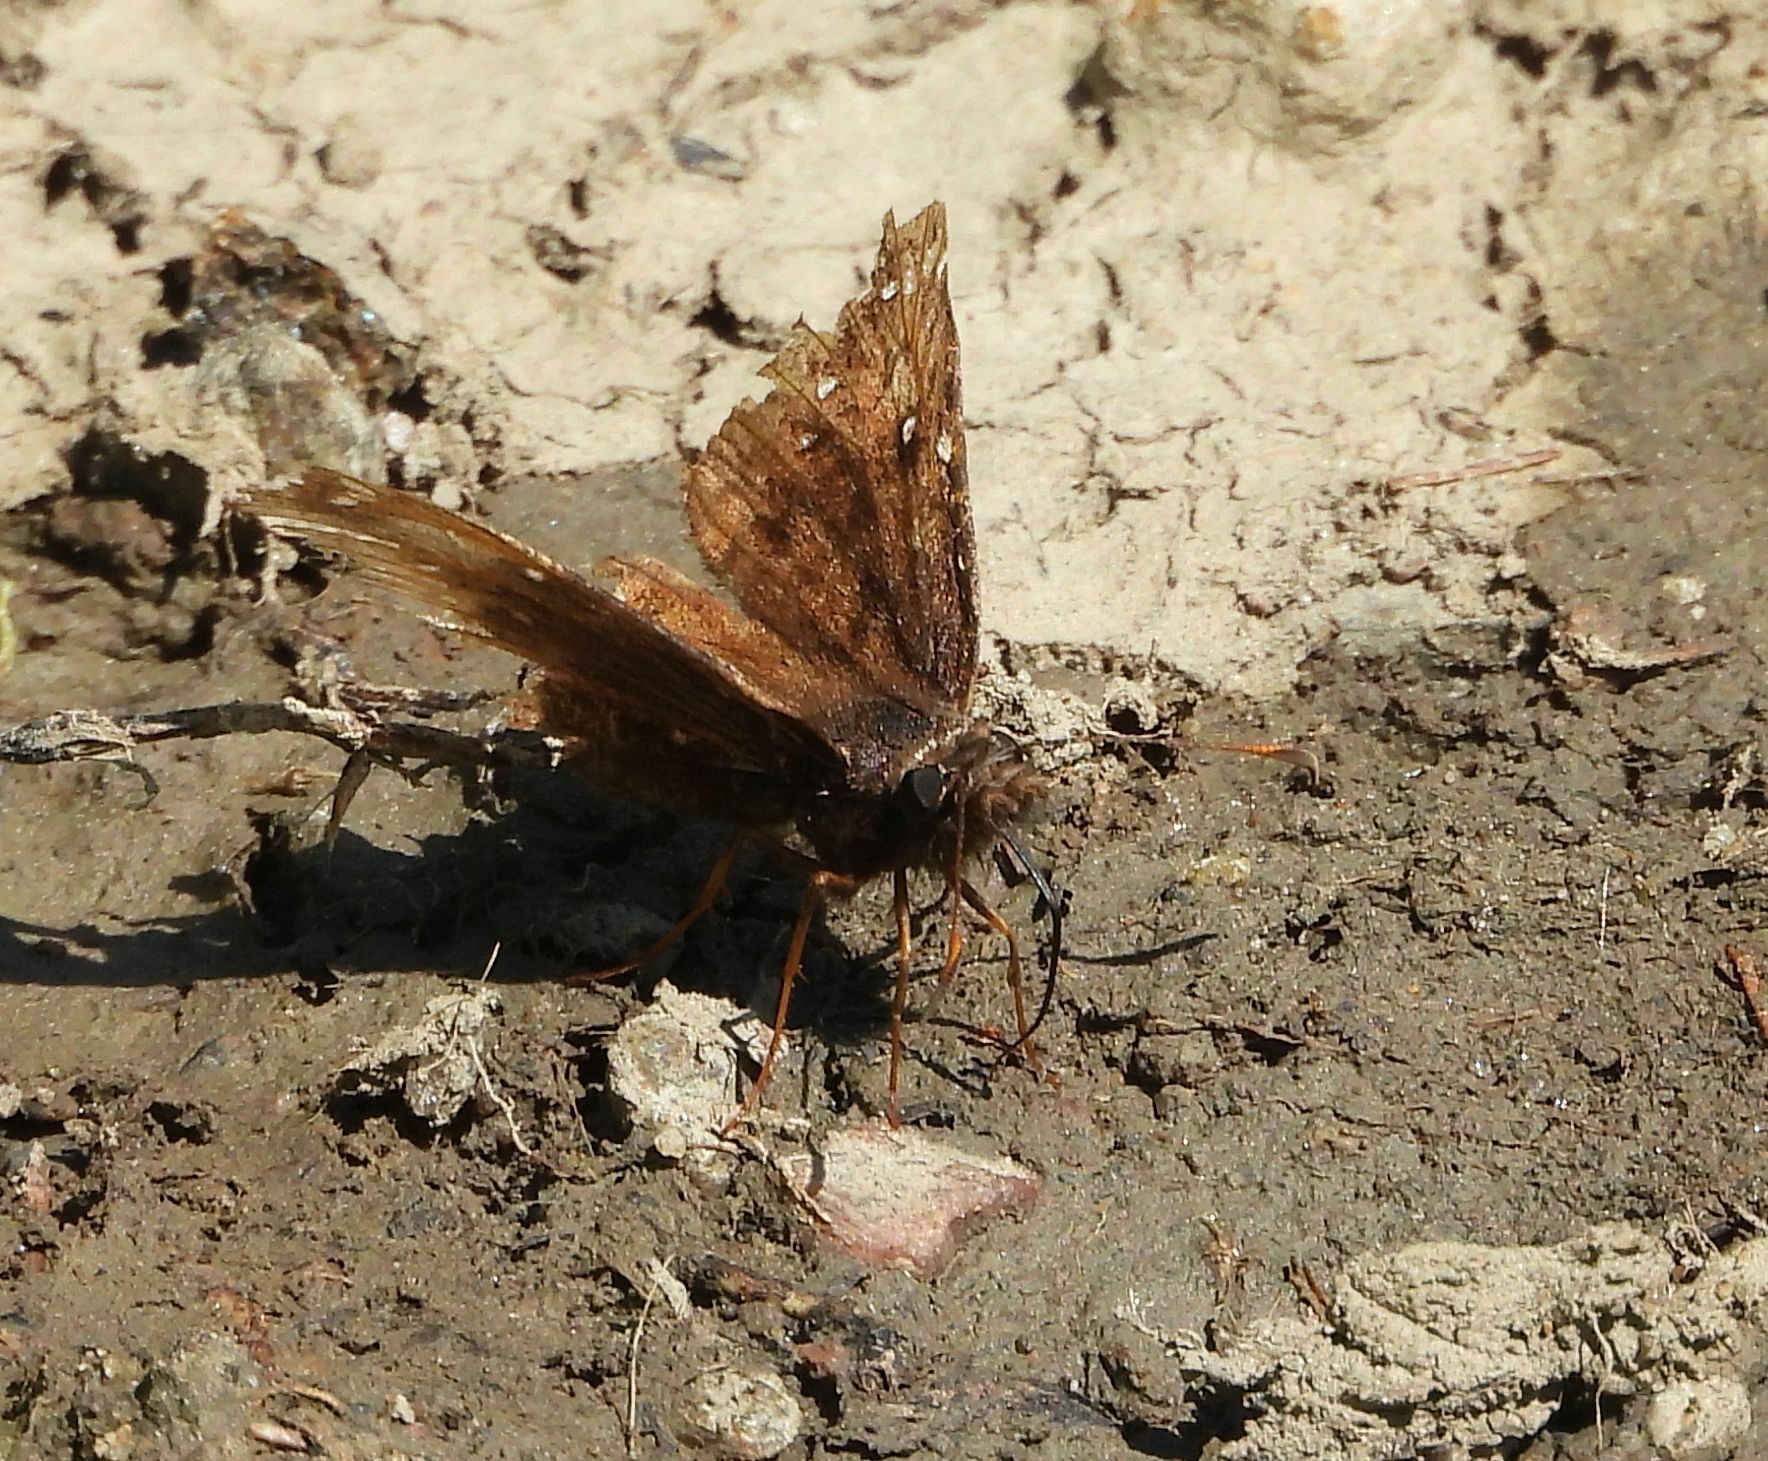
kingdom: Animalia
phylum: Arthropoda
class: Insecta
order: Lepidoptera
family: Hesperiidae
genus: Erynnis
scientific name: Erynnis juvenalis
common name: Juvenal's duskywing
